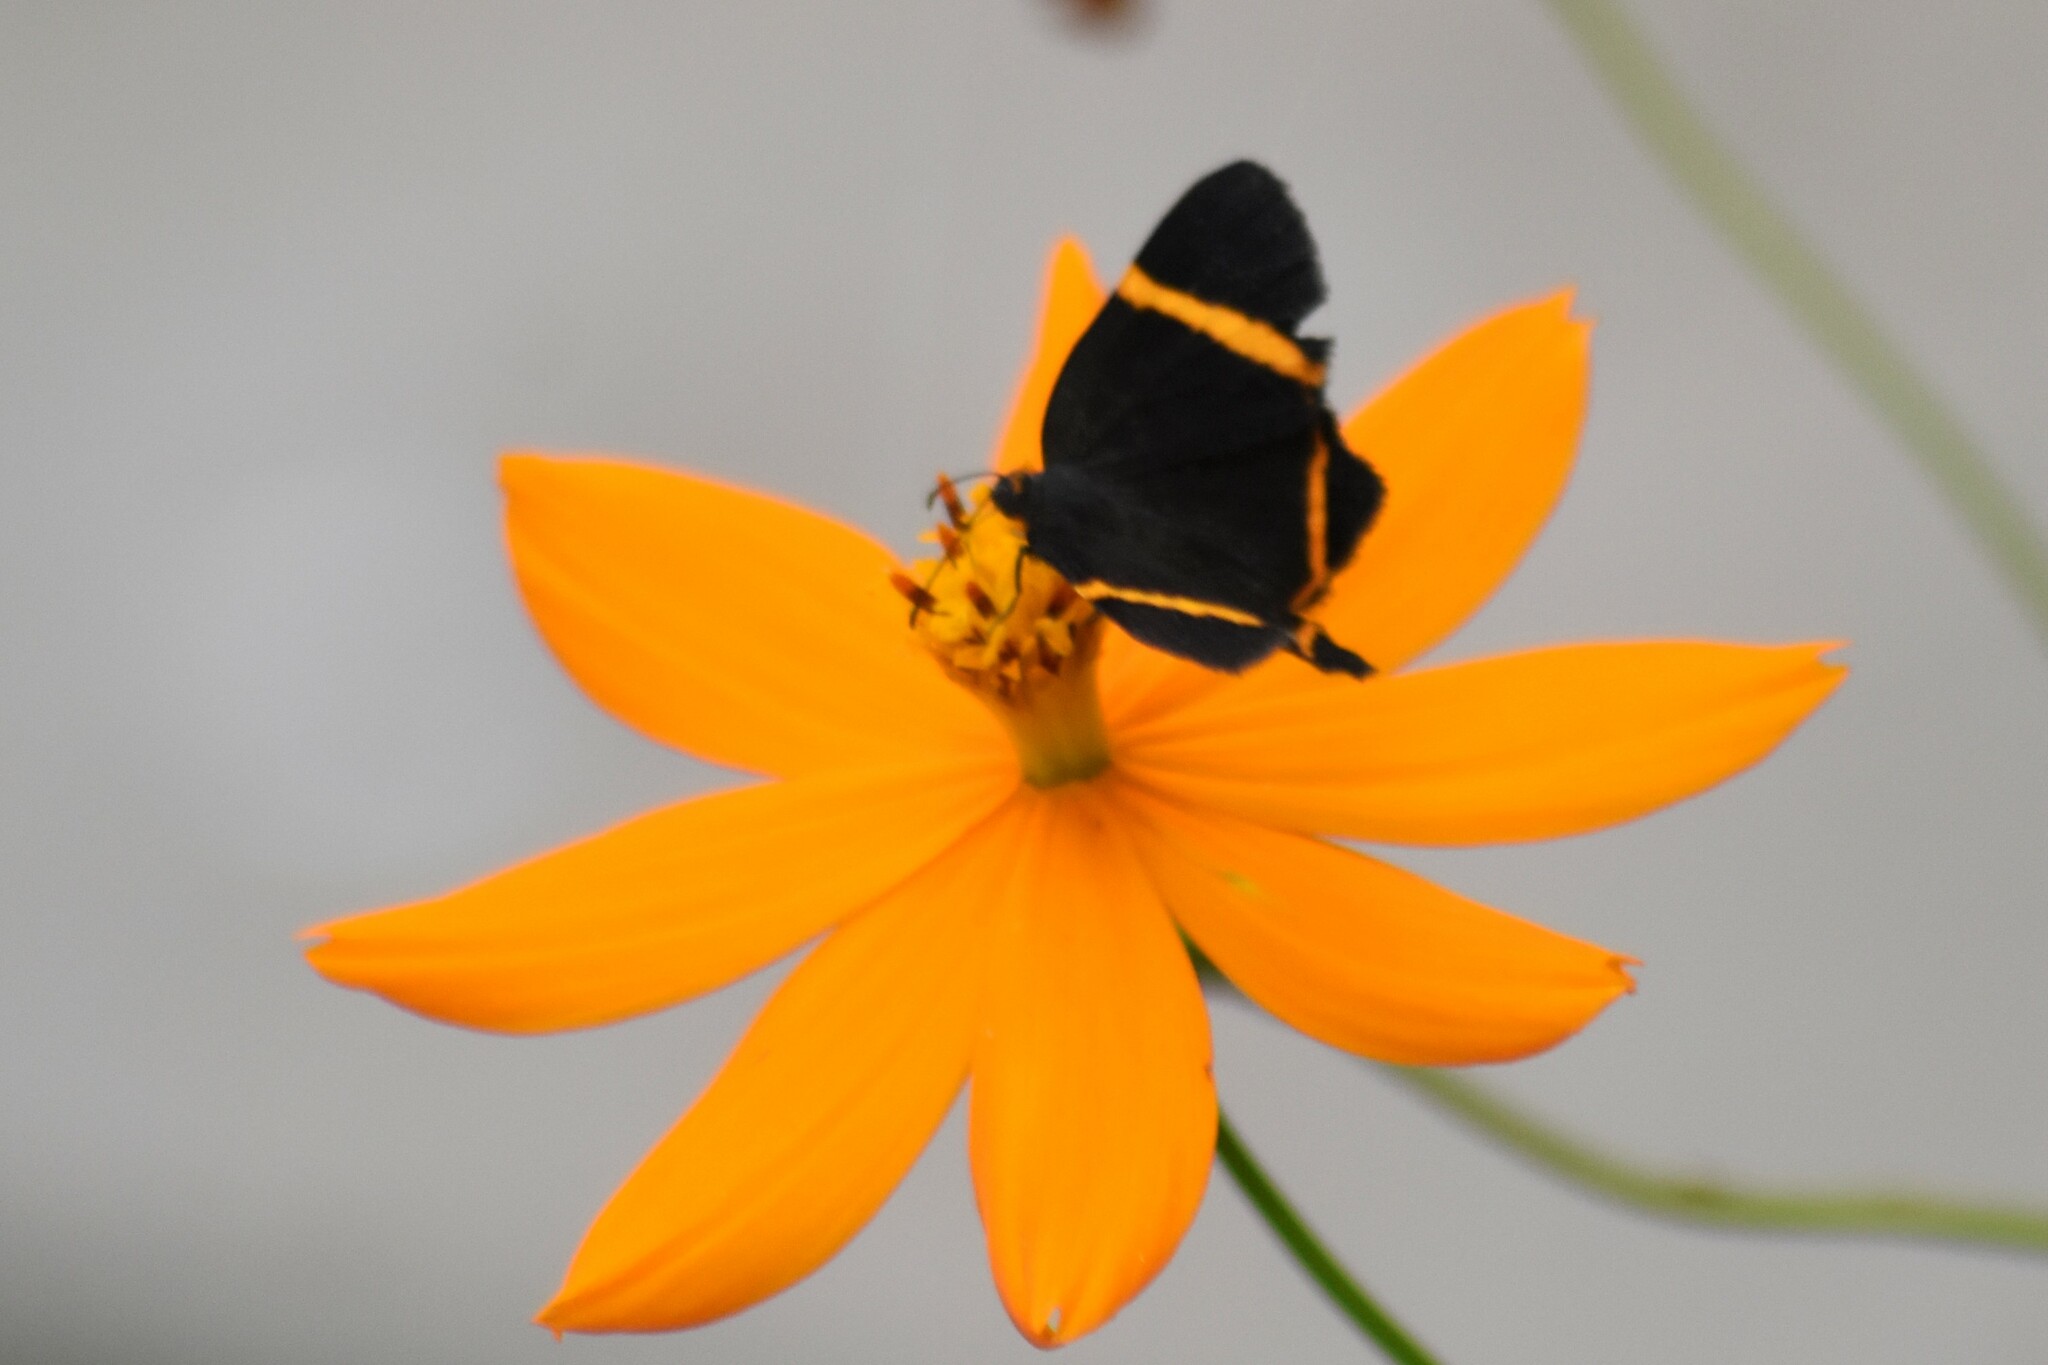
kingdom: Animalia
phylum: Arthropoda
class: Insecta
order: Lepidoptera
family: Riodinidae
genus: Riodina
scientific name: Riodina lysippoides
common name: Little dancer metalmark
